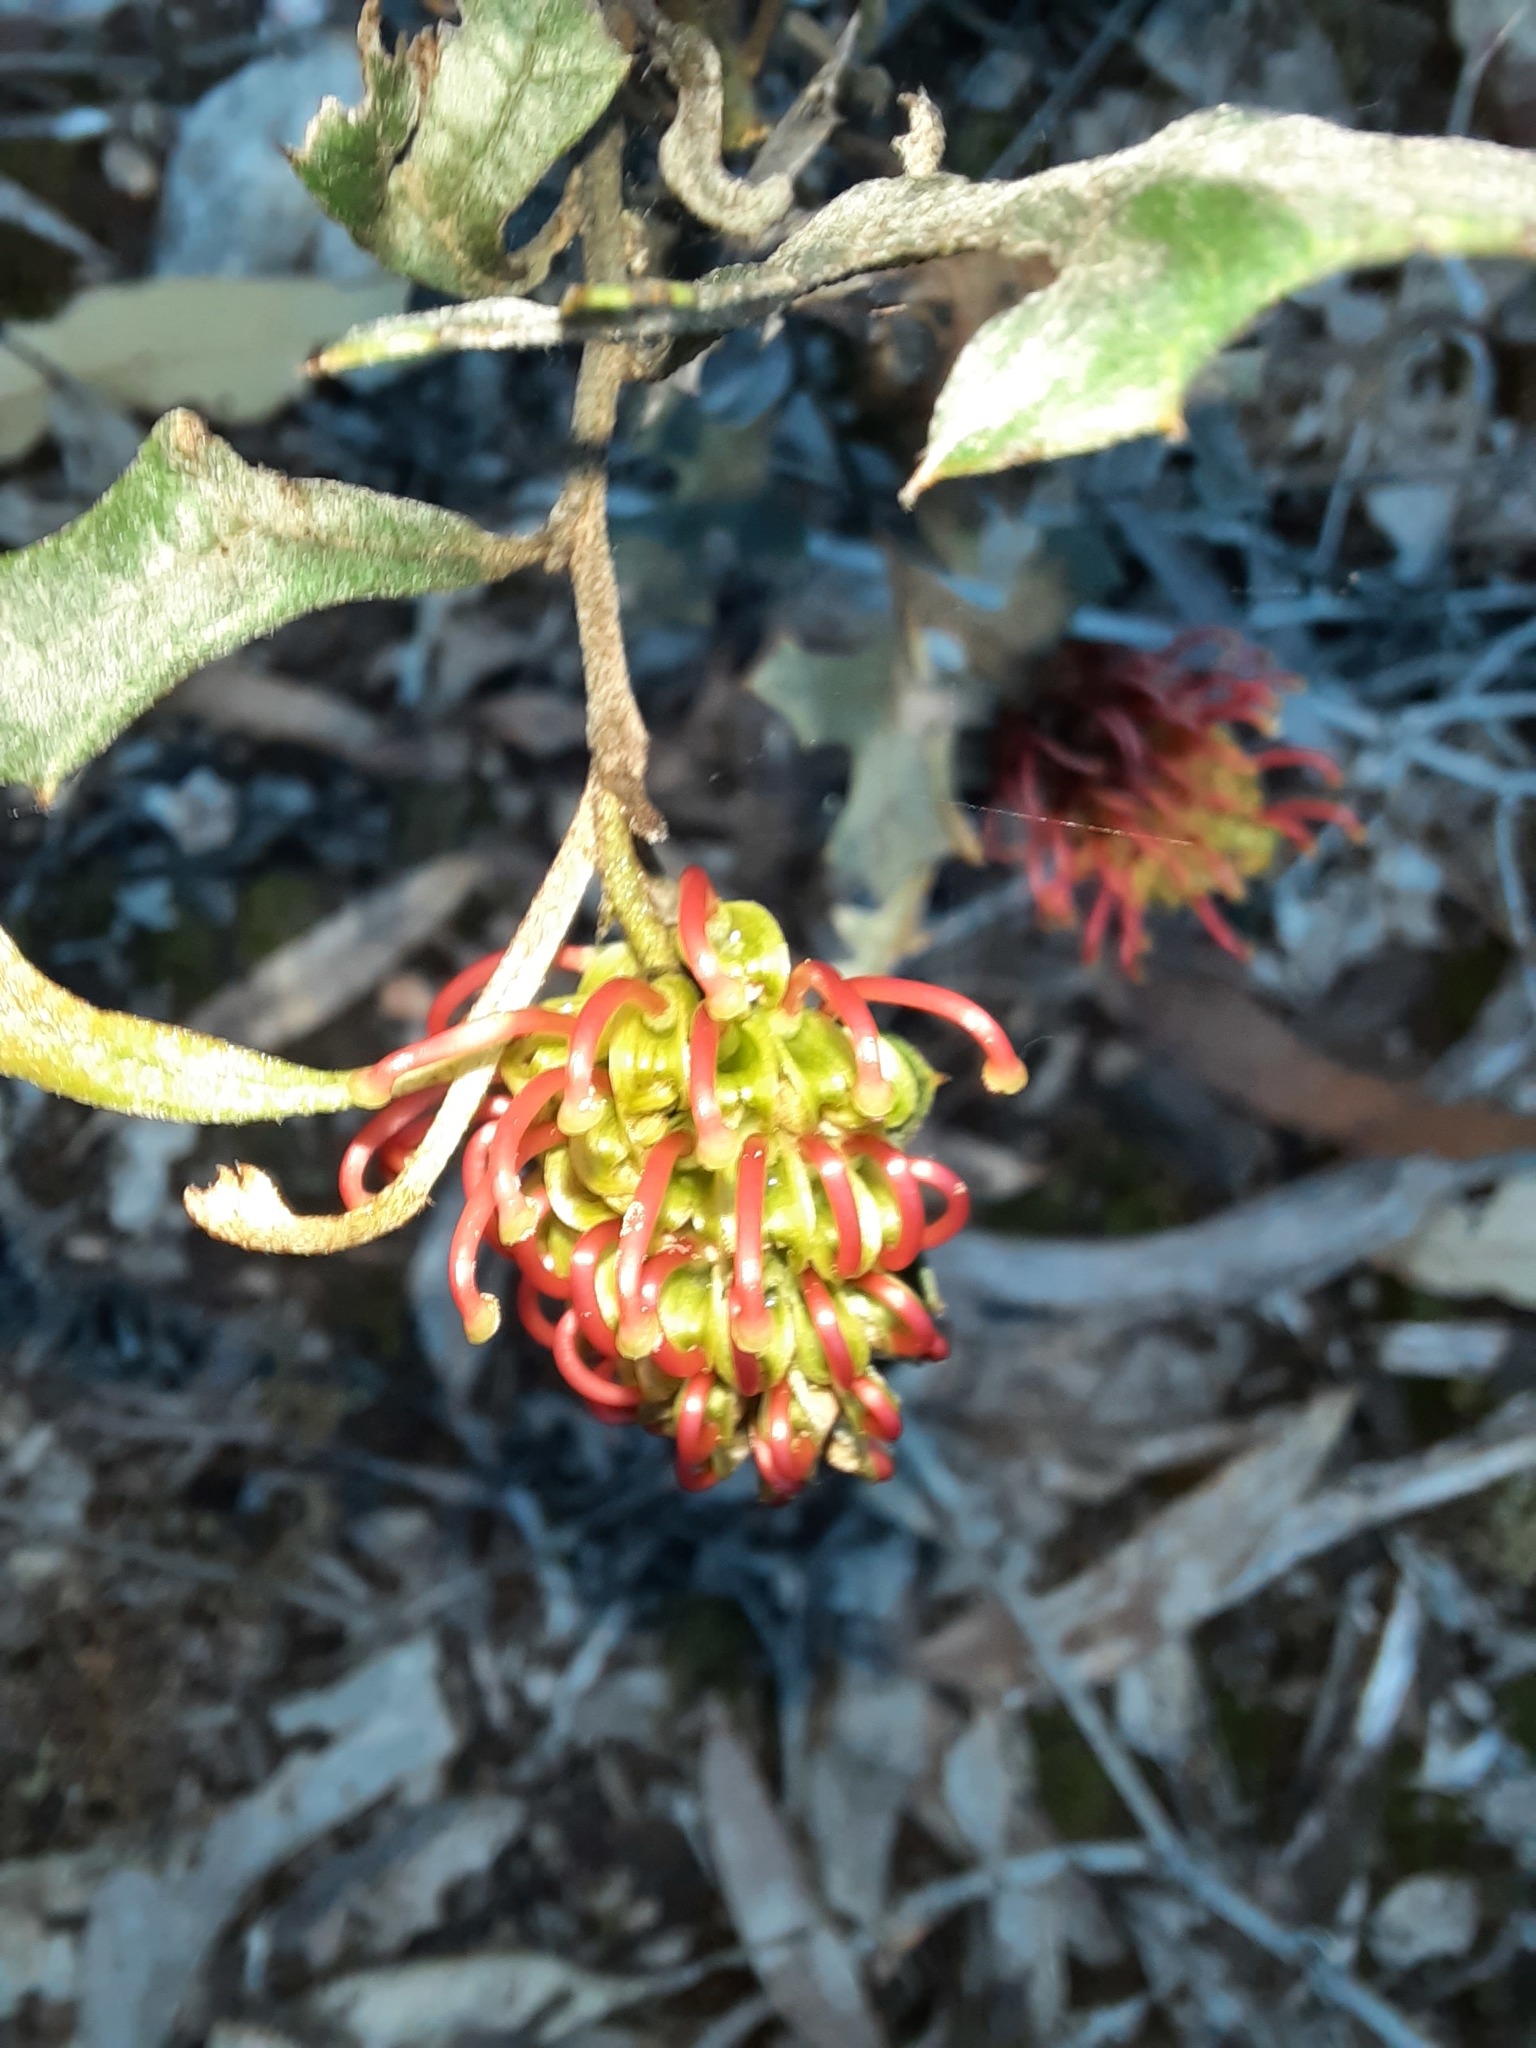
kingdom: Plantae
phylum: Tracheophyta
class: Magnoliopsida
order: Proteales
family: Proteaceae
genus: Grevillea
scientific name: Grevillea dryophylla
